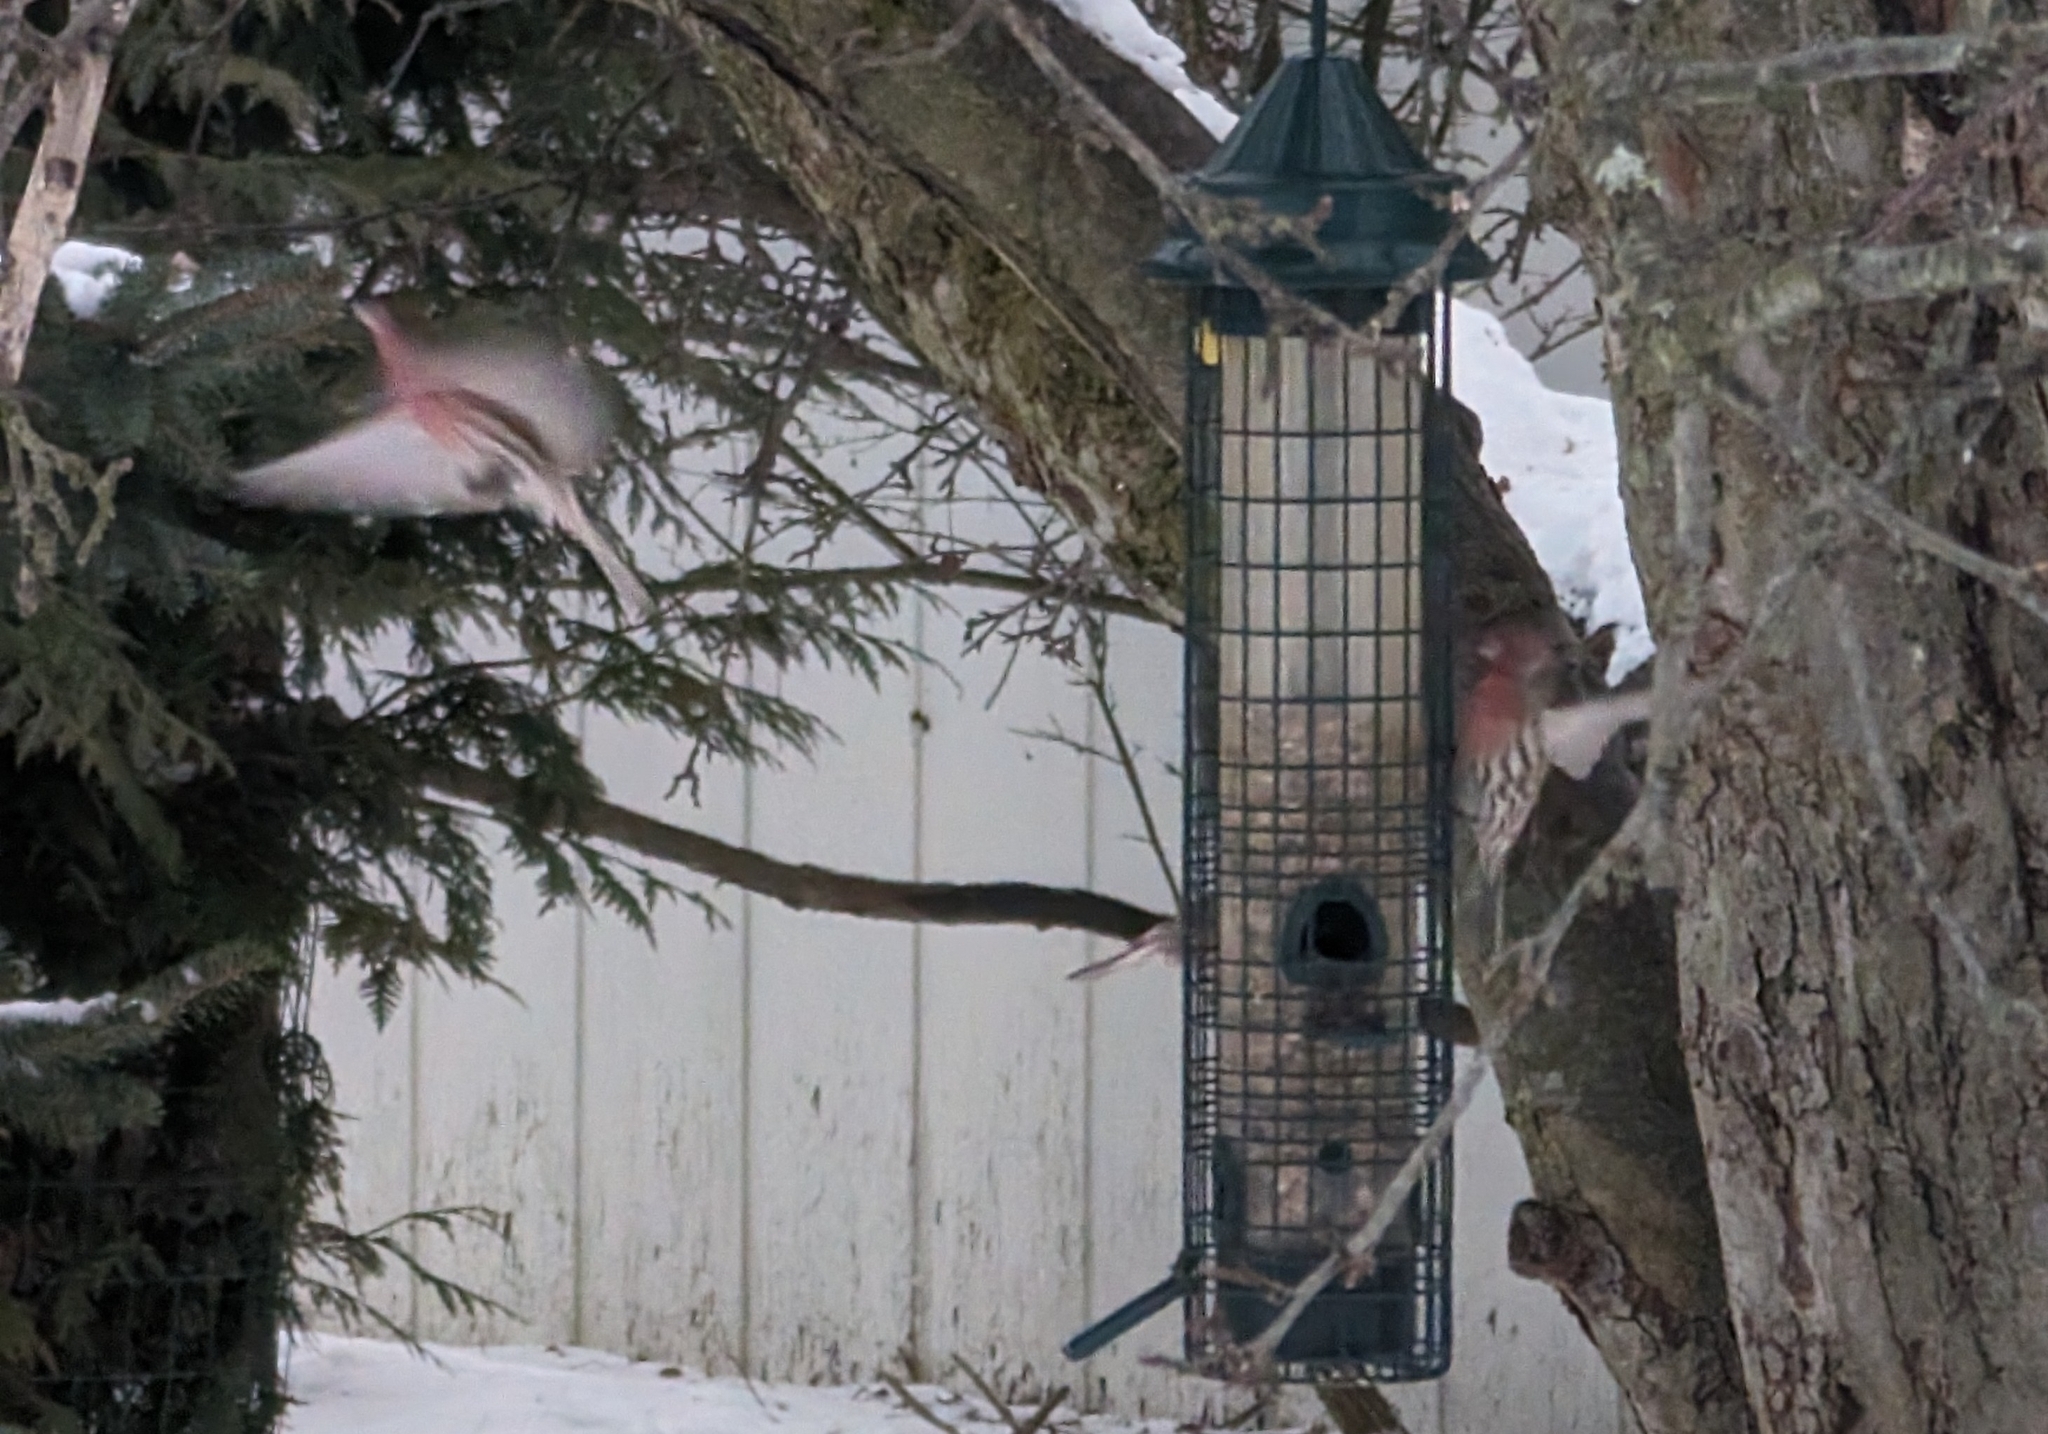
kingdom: Animalia
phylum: Chordata
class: Aves
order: Passeriformes
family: Fringillidae
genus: Haemorhous
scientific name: Haemorhous mexicanus
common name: House finch
